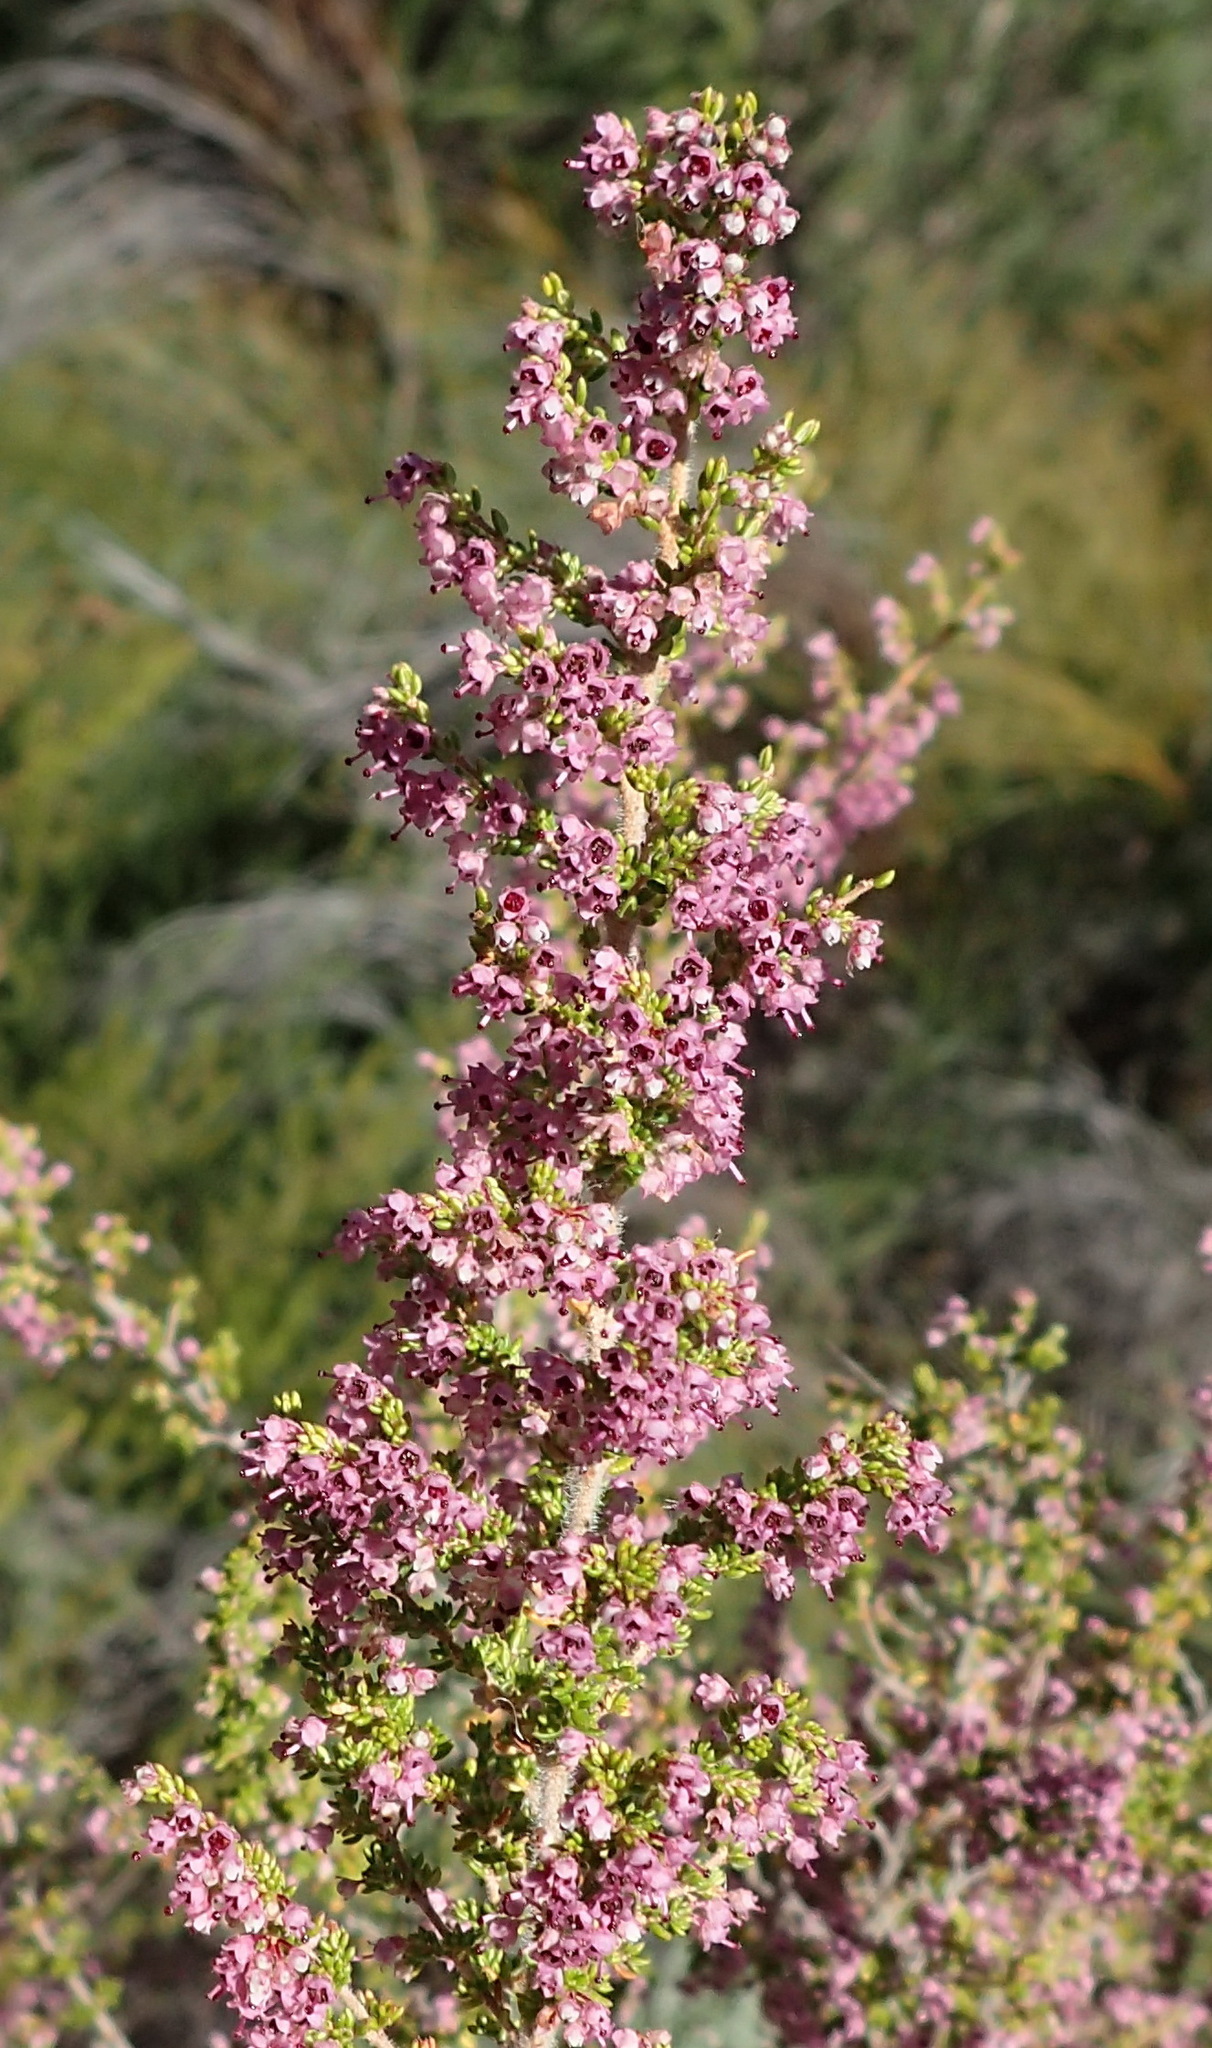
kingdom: Plantae
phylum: Tracheophyta
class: Magnoliopsida
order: Ericales
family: Ericaceae
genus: Erica
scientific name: Erica copiosa
